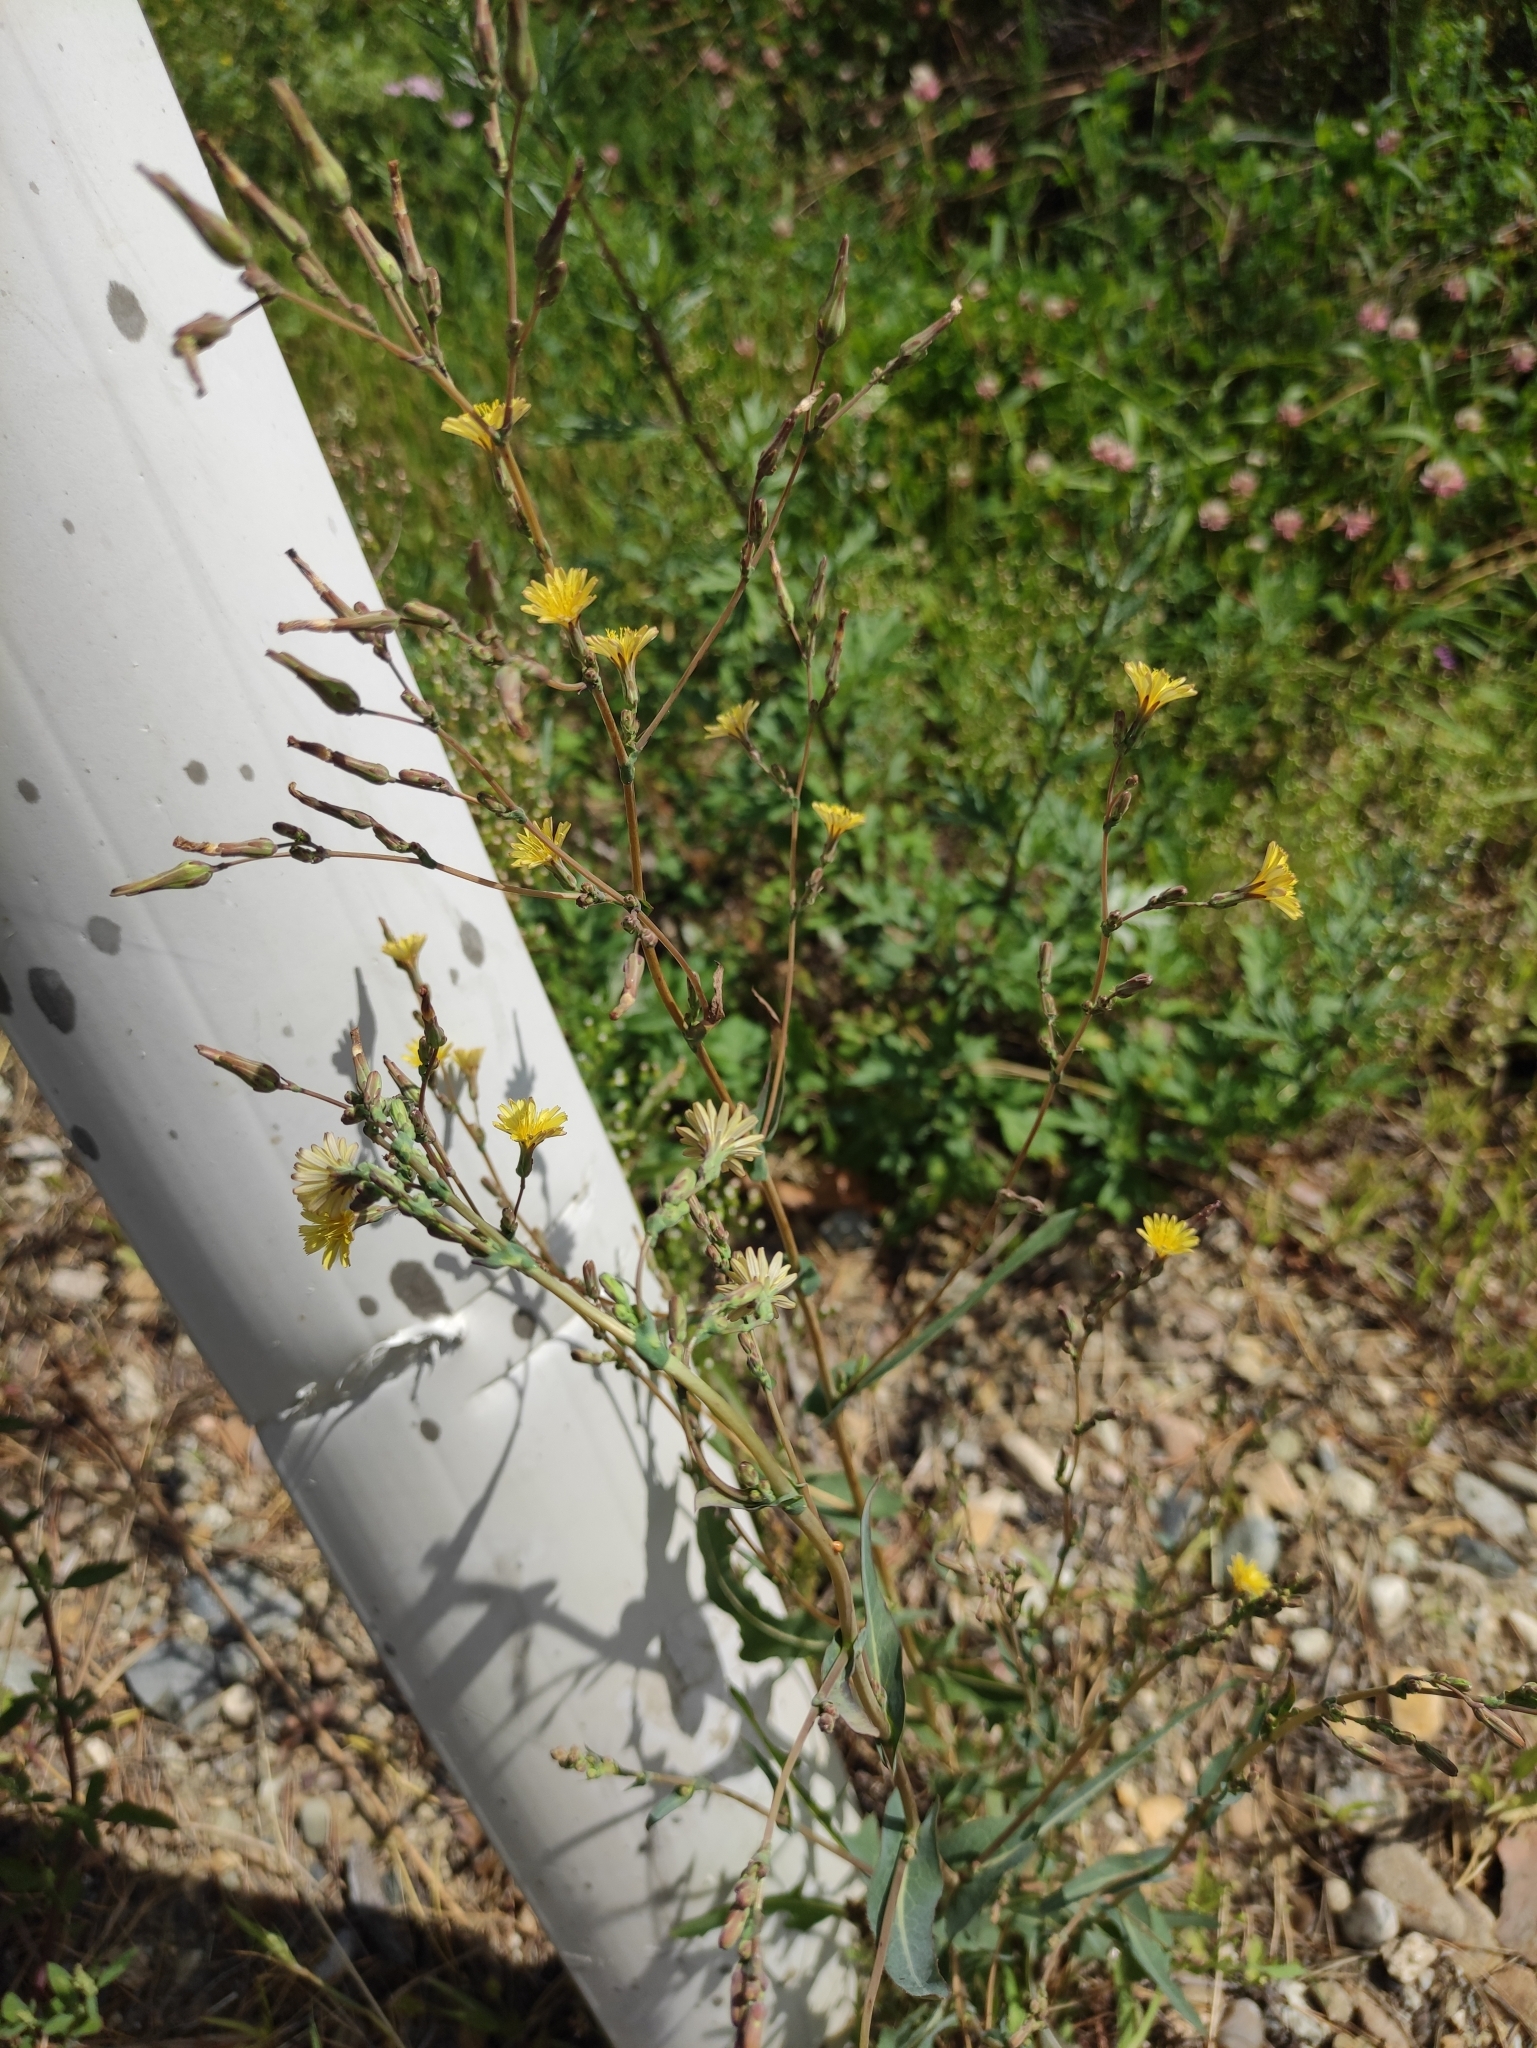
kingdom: Plantae
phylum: Tracheophyta
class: Magnoliopsida
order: Asterales
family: Asteraceae
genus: Lactuca
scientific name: Lactuca serriola
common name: Prickly lettuce
